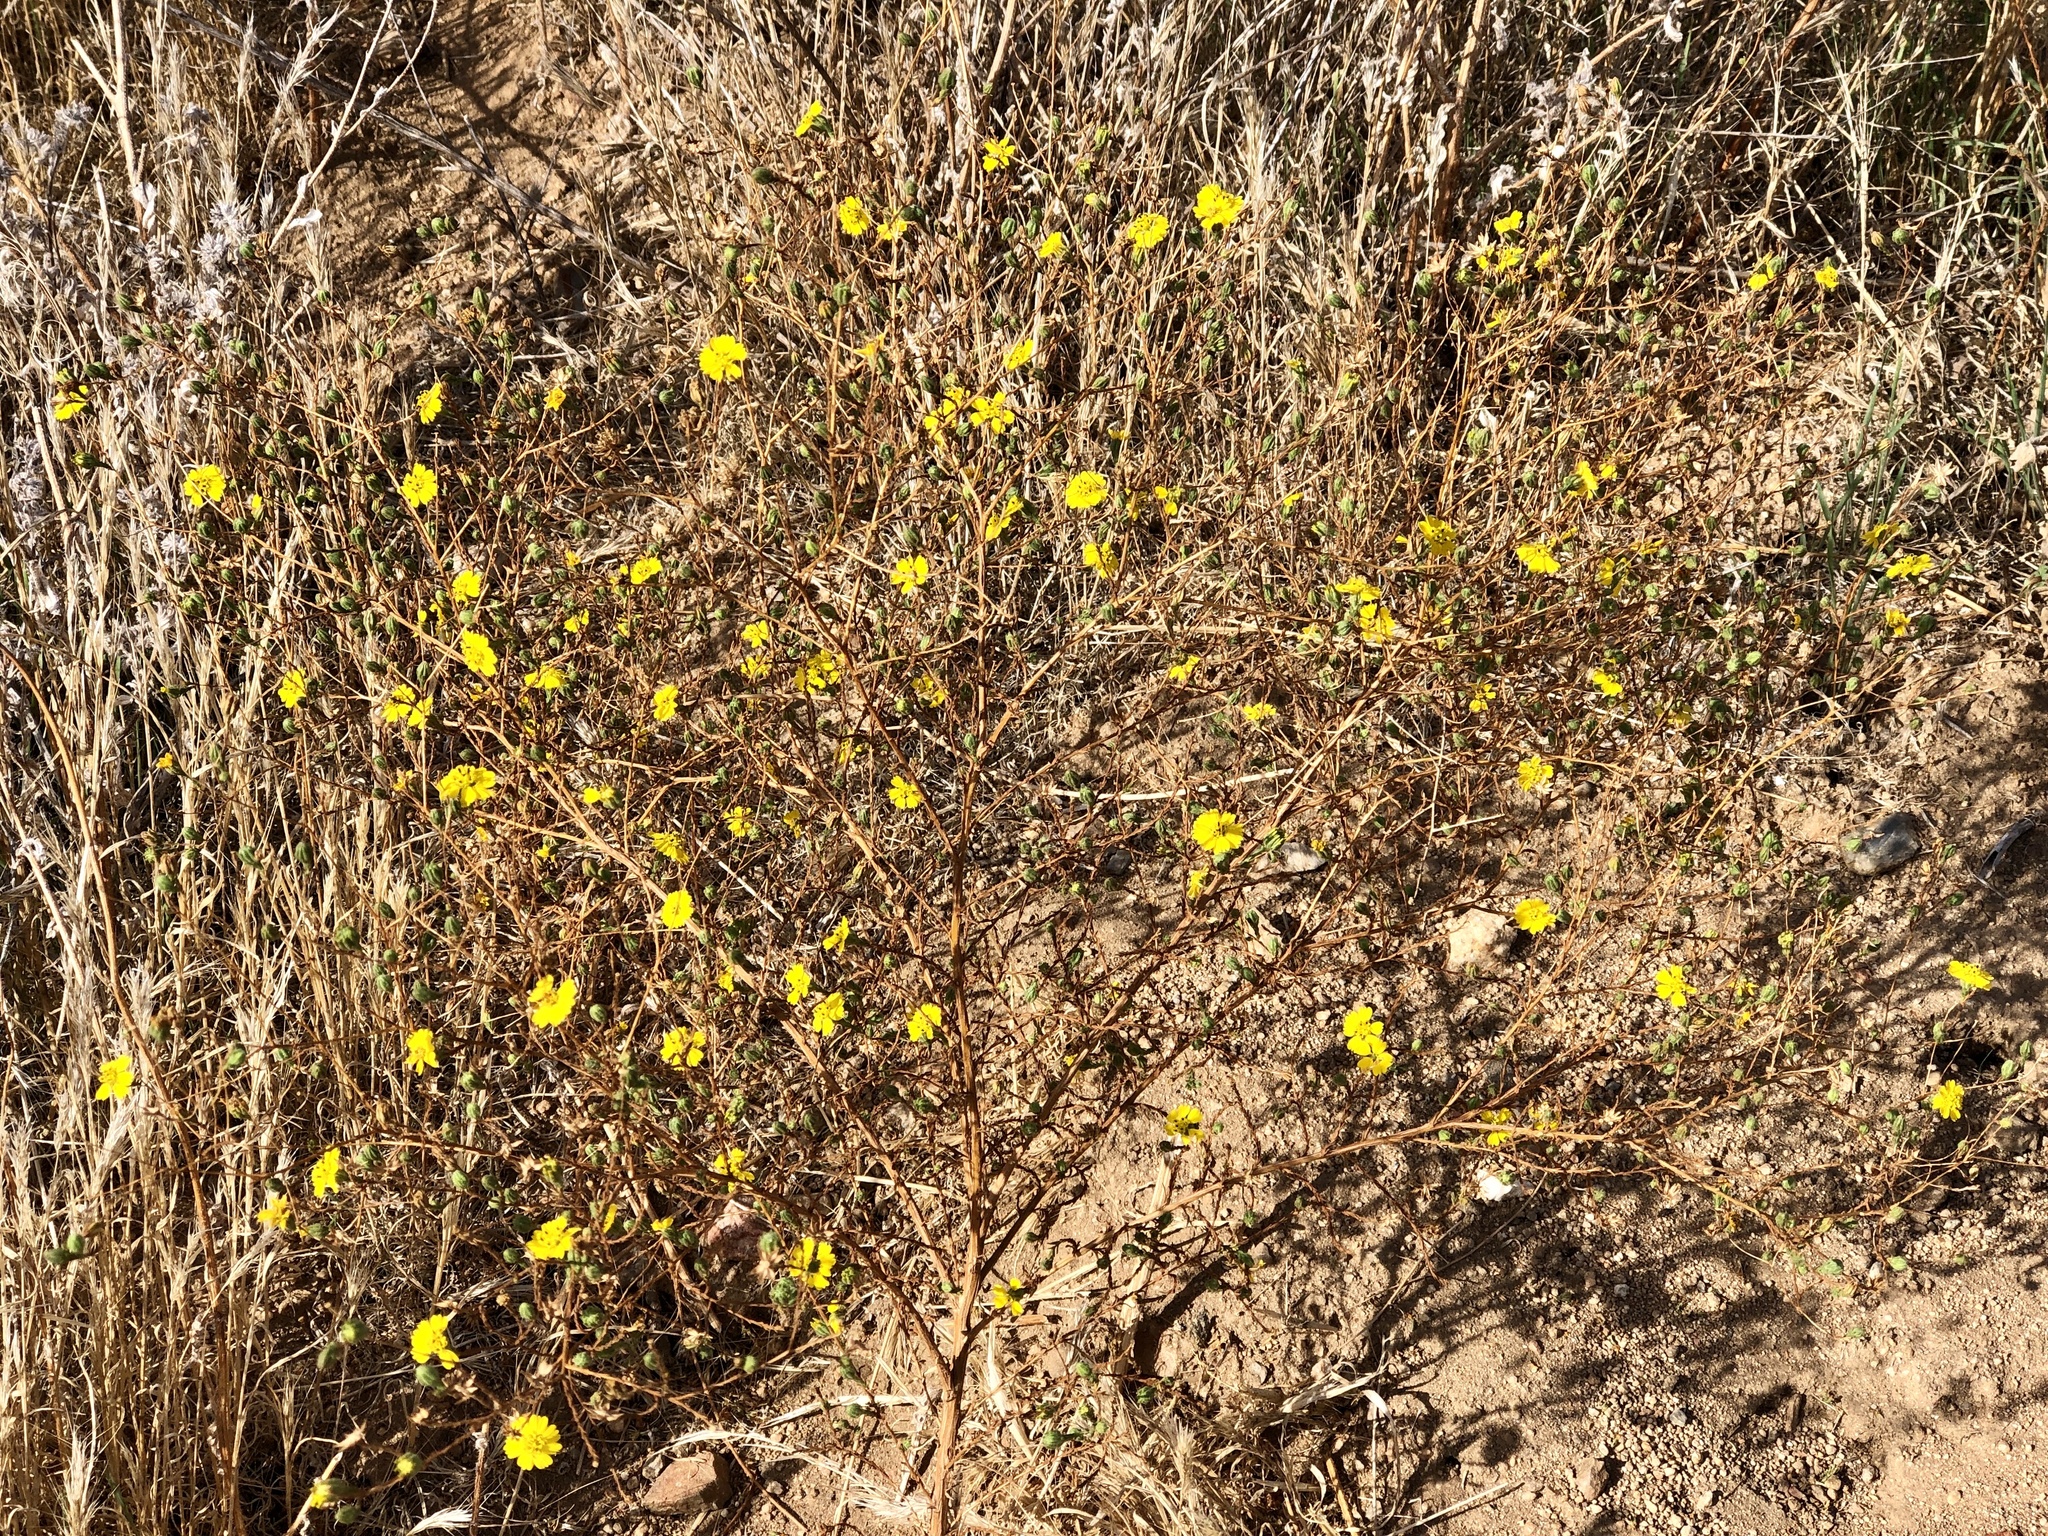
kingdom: Plantae
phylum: Tracheophyta
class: Magnoliopsida
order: Asterales
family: Asteraceae
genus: Deinandra
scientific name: Deinandra paniculata
